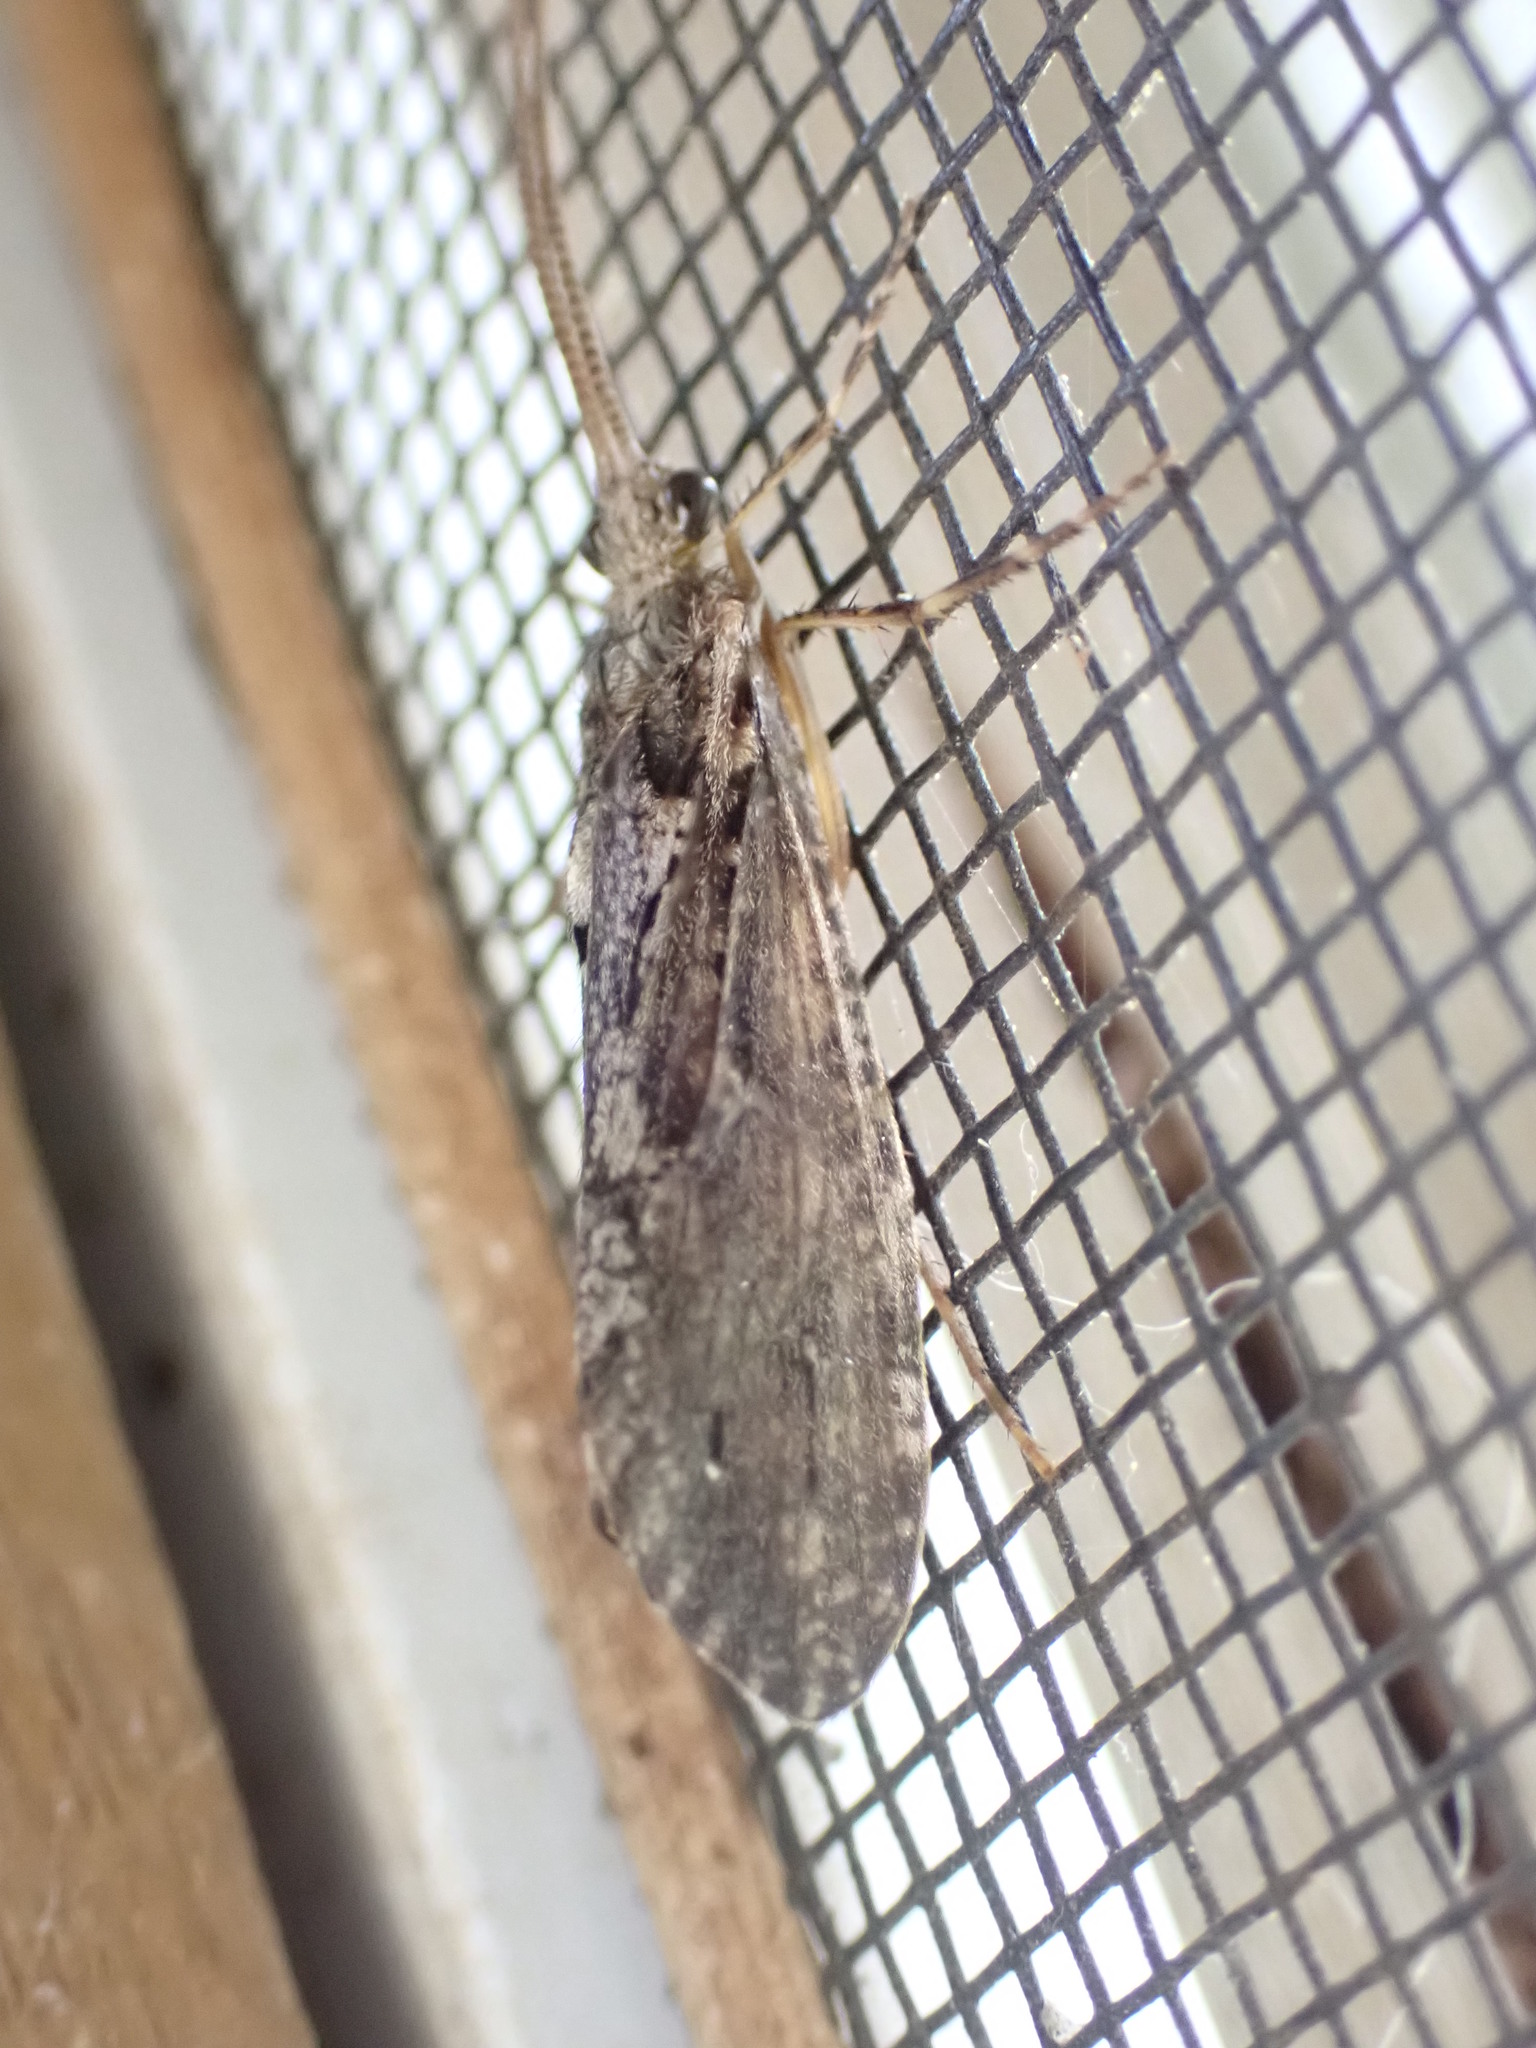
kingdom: Animalia
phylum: Arthropoda
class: Insecta
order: Trichoptera
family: Phryganeidae
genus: Phryganea
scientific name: Phryganea cinerea
